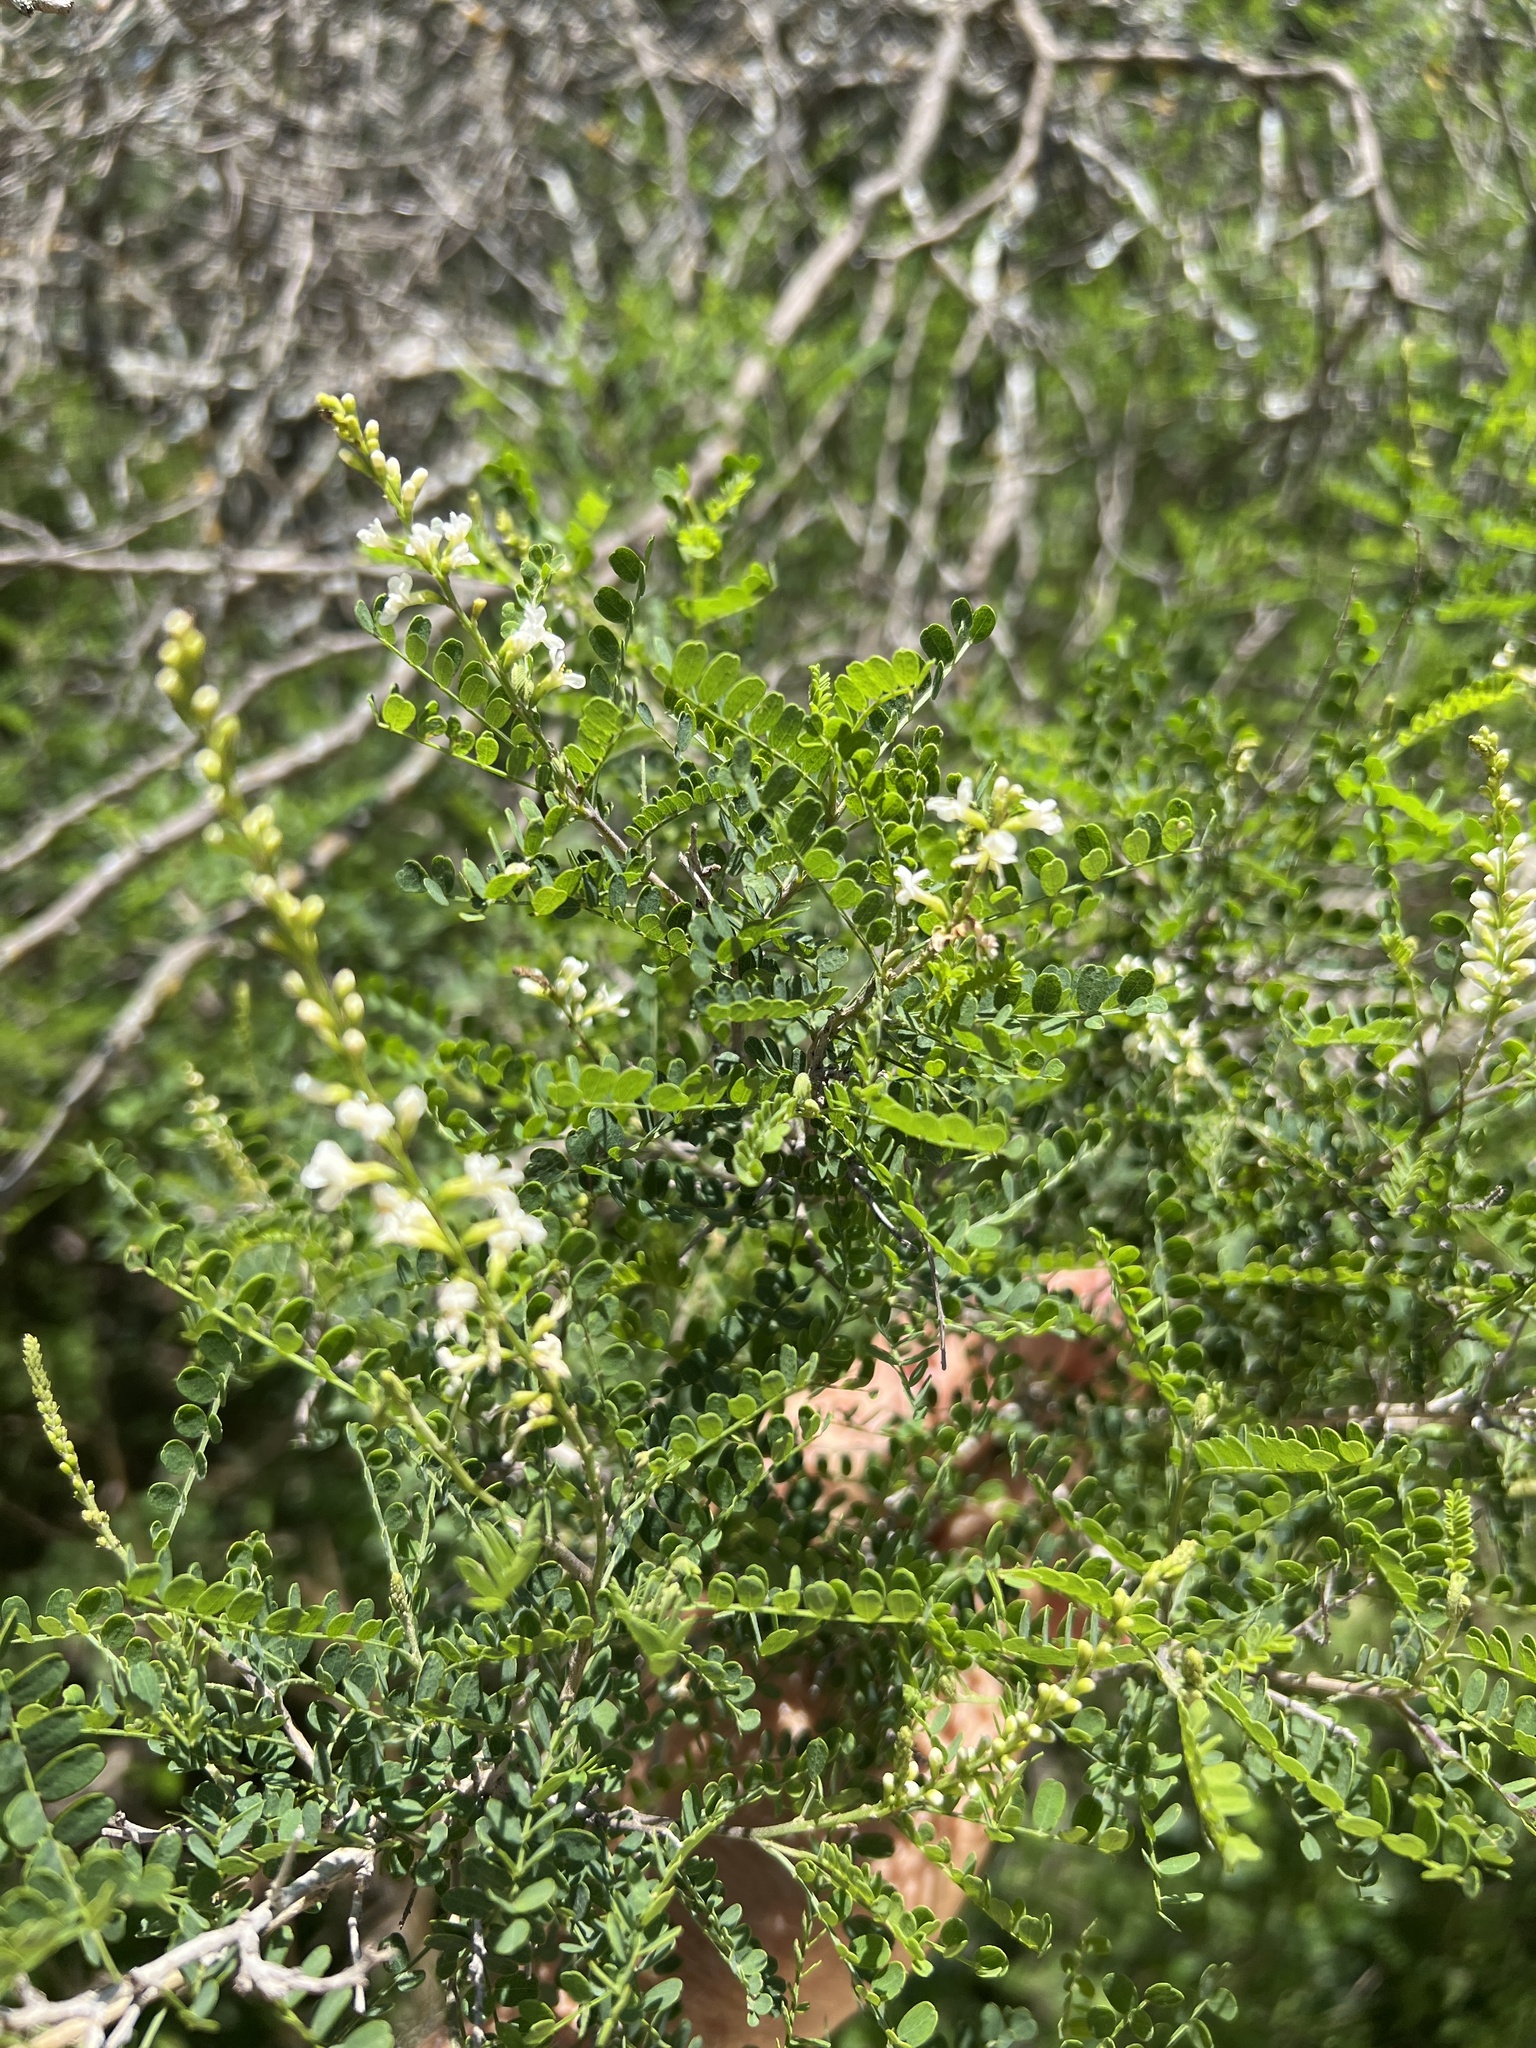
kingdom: Plantae
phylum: Tracheophyta
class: Magnoliopsida
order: Fabales
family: Fabaceae
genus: Eysenhardtia
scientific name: Eysenhardtia texana
